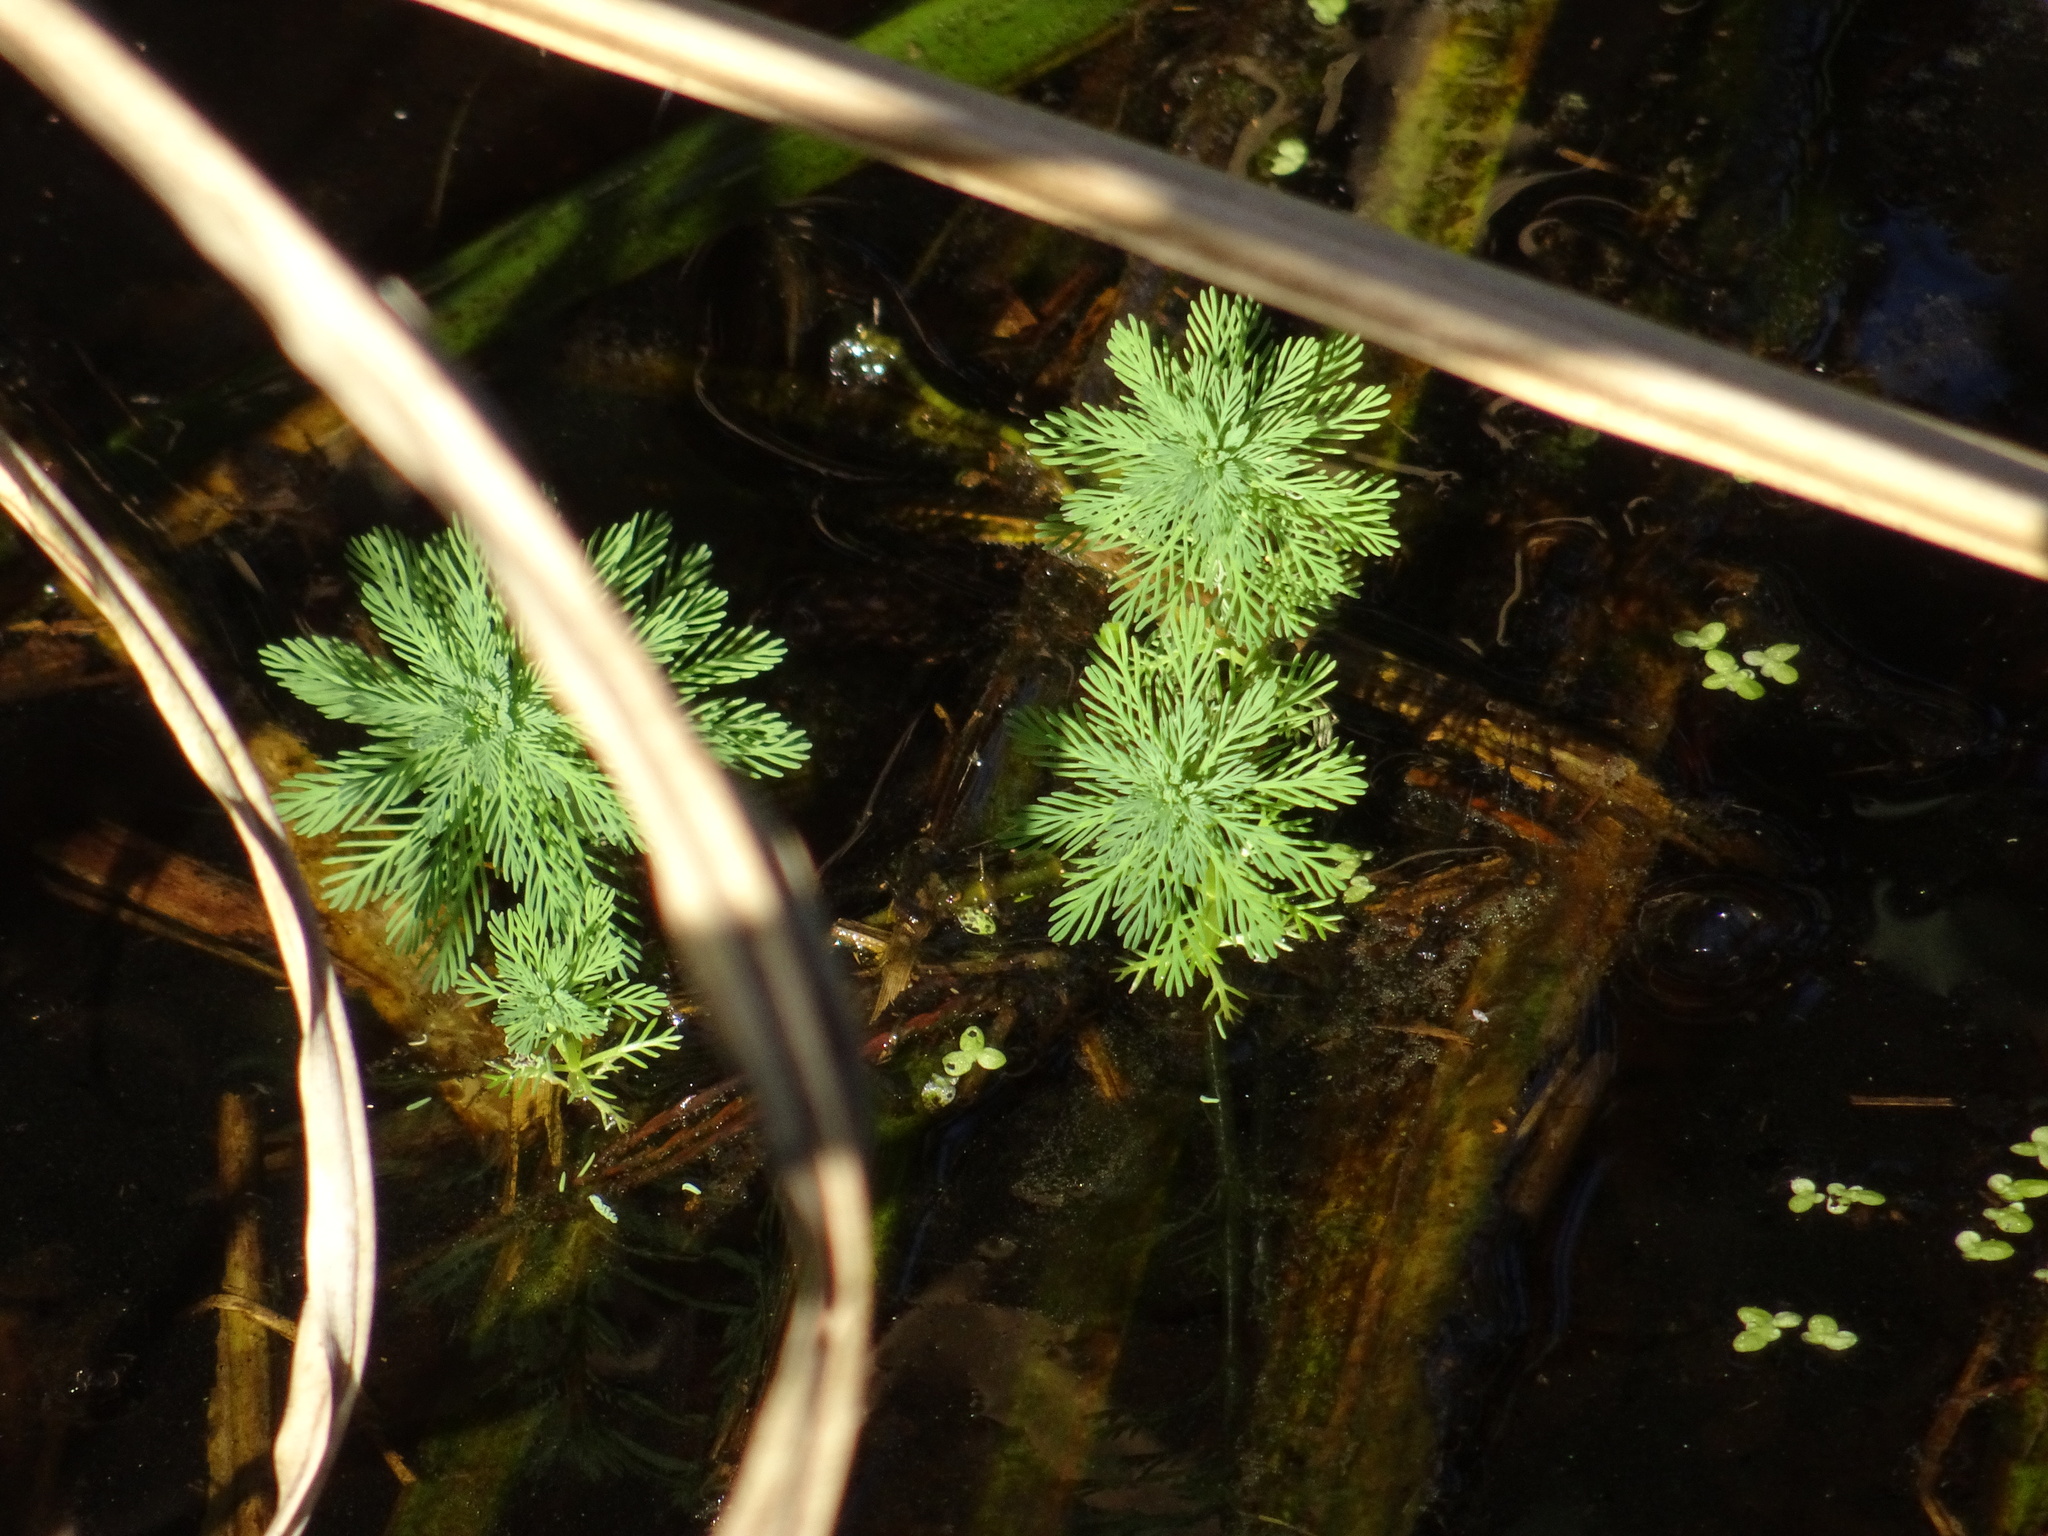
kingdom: Plantae
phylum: Tracheophyta
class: Magnoliopsida
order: Saxifragales
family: Haloragaceae
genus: Myriophyllum
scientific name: Myriophyllum aquaticum
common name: Parrot's feather
